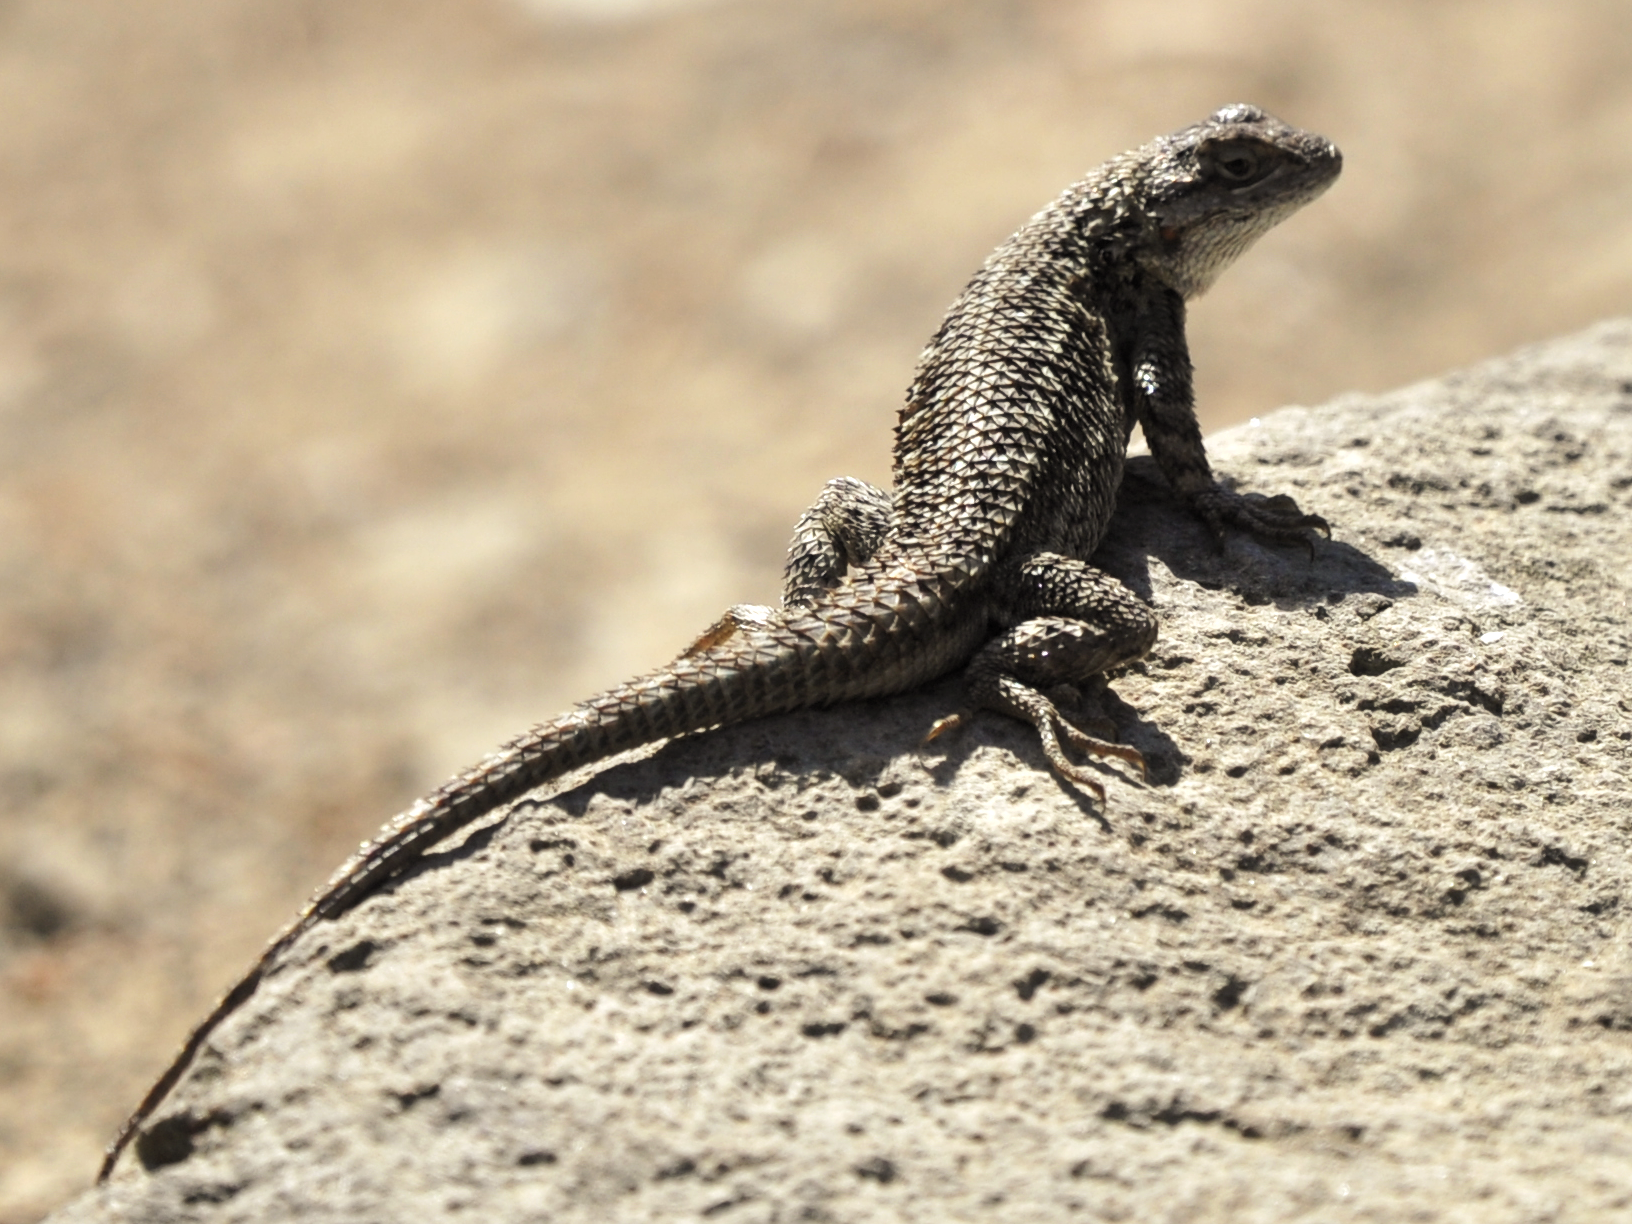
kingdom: Animalia
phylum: Chordata
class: Squamata
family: Phrynosomatidae
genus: Sceloporus
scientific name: Sceloporus occidentalis
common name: Western fence lizard
